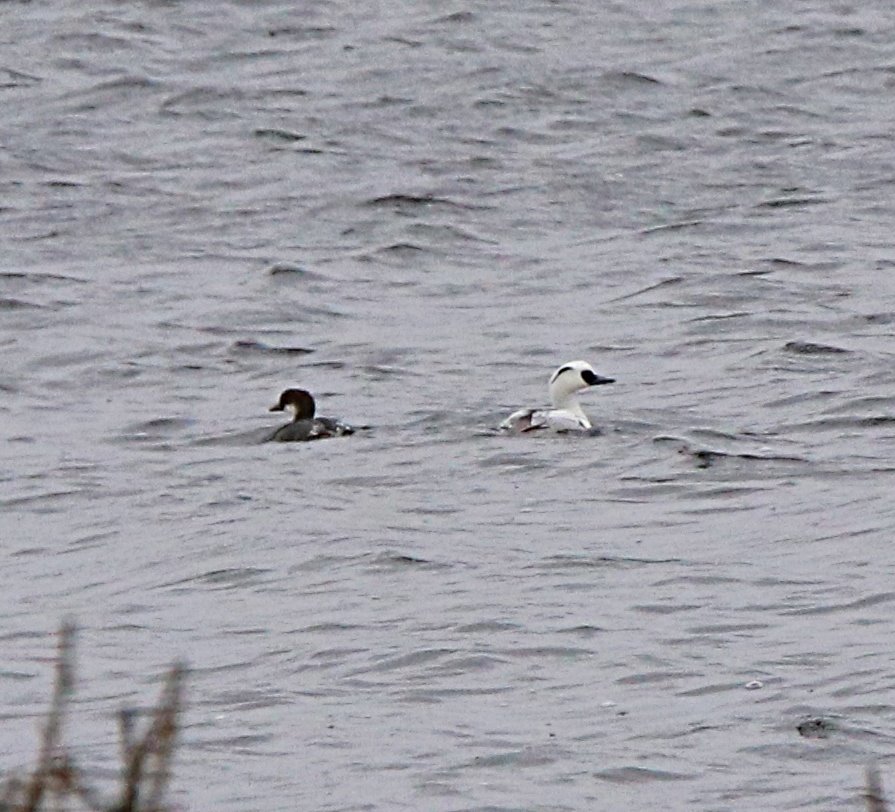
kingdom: Animalia
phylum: Chordata
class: Aves
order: Anseriformes
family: Anatidae
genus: Mergellus
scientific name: Mergellus albellus
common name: Smew
